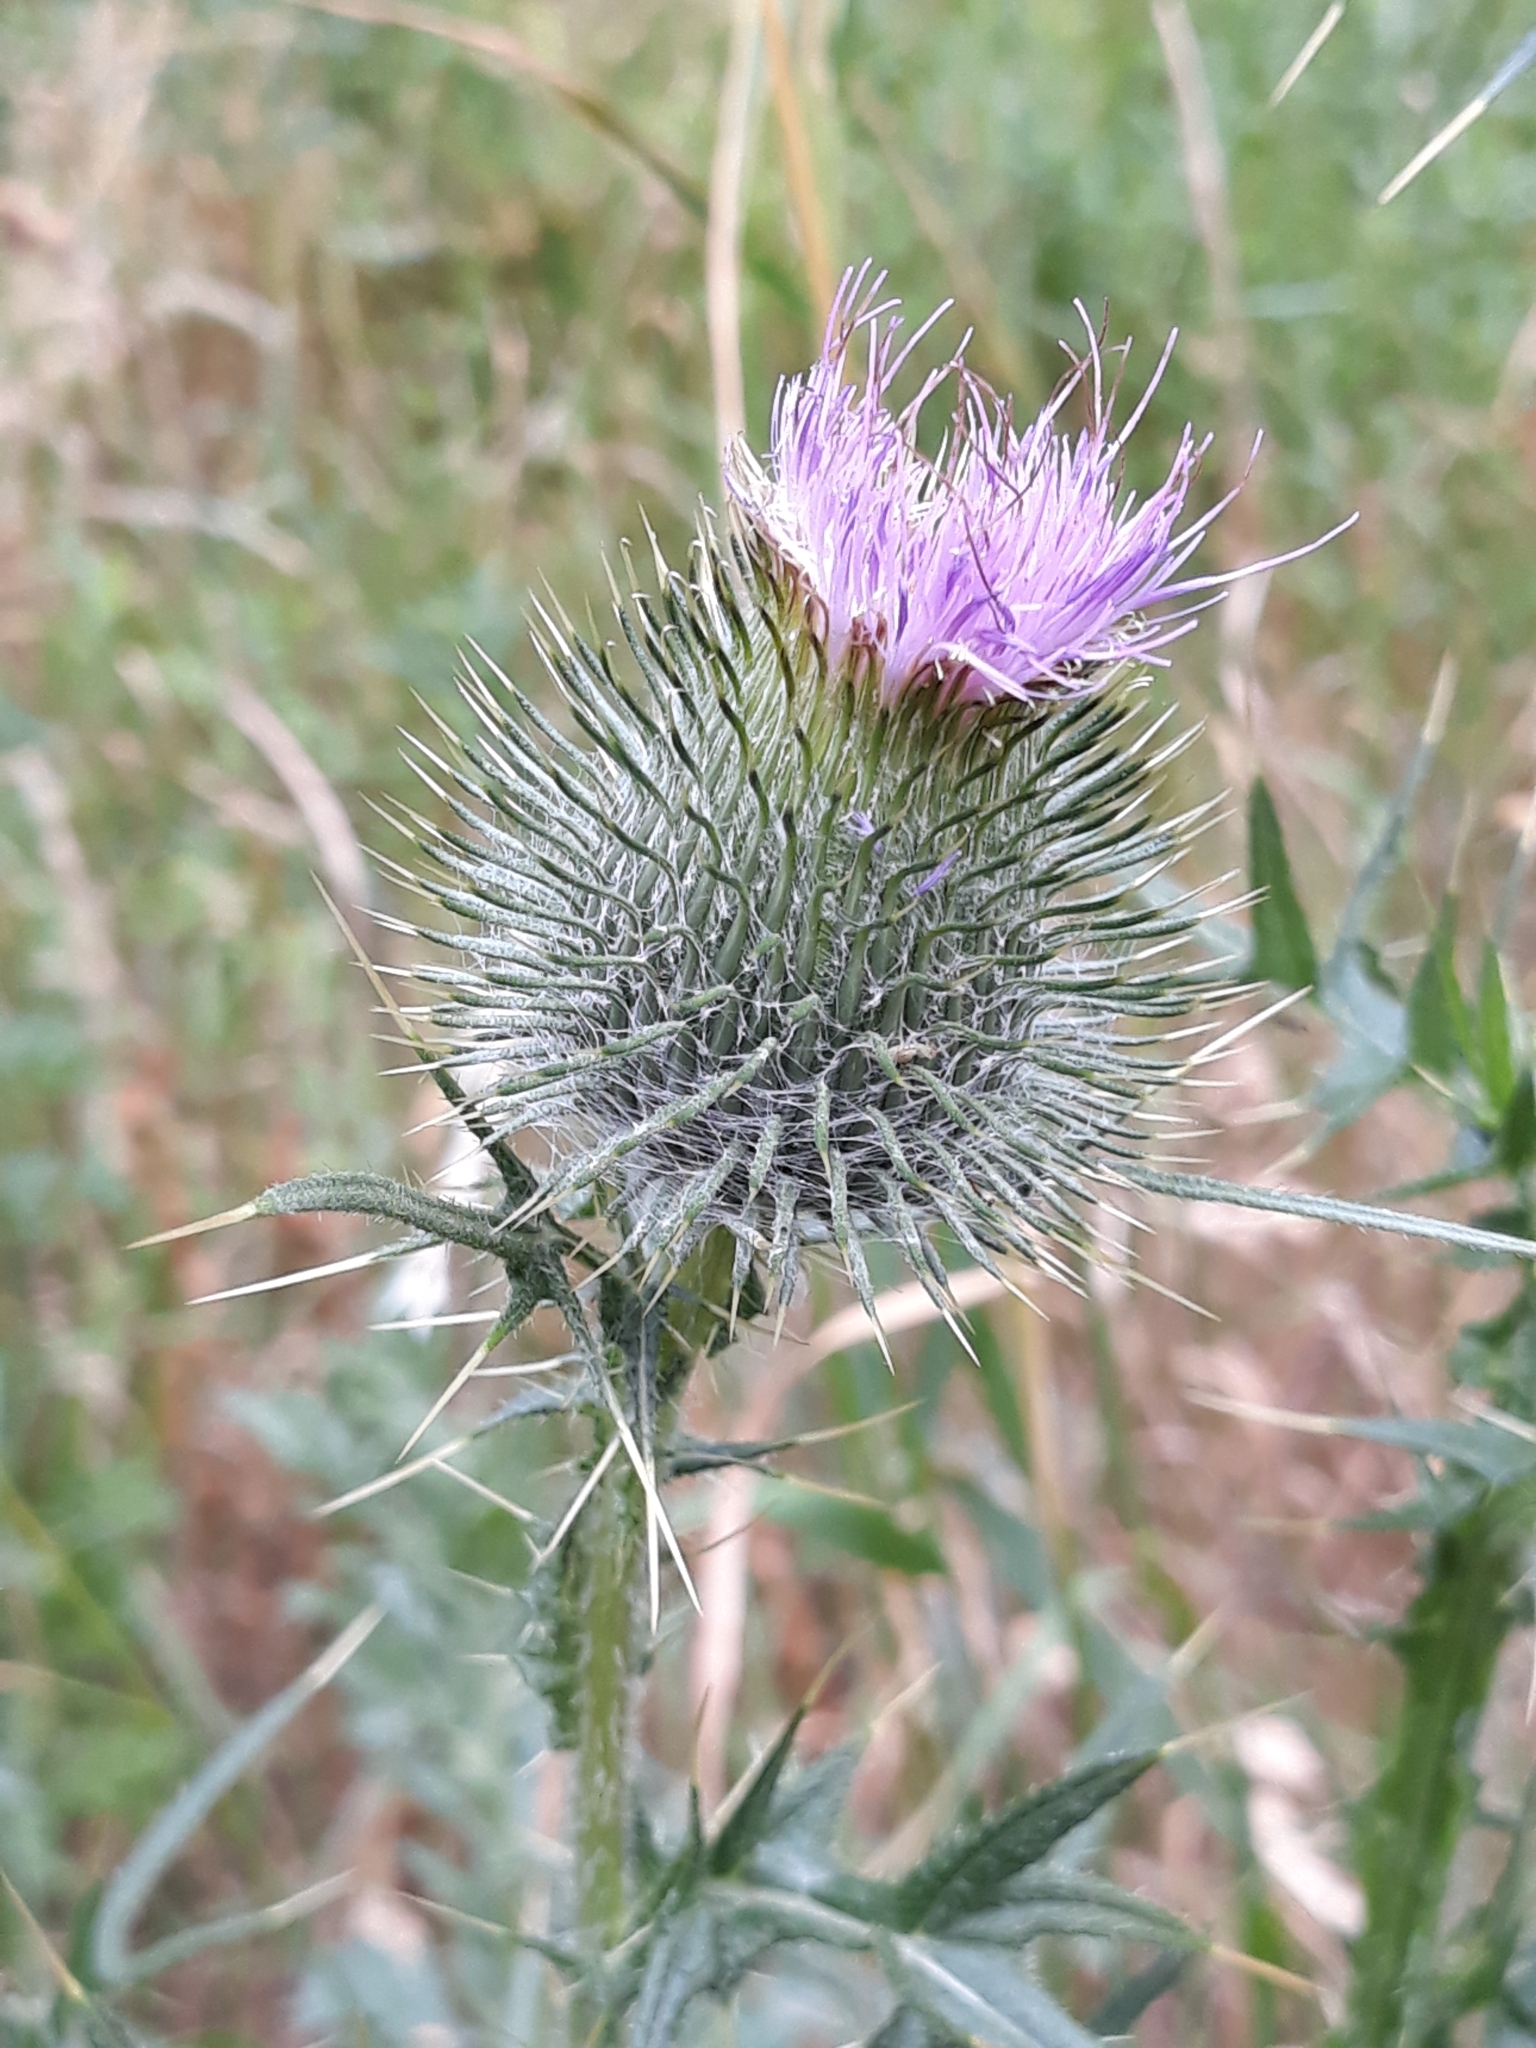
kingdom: Plantae
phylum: Tracheophyta
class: Magnoliopsida
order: Asterales
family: Asteraceae
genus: Cirsium
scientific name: Cirsium vulgare
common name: Bull thistle
